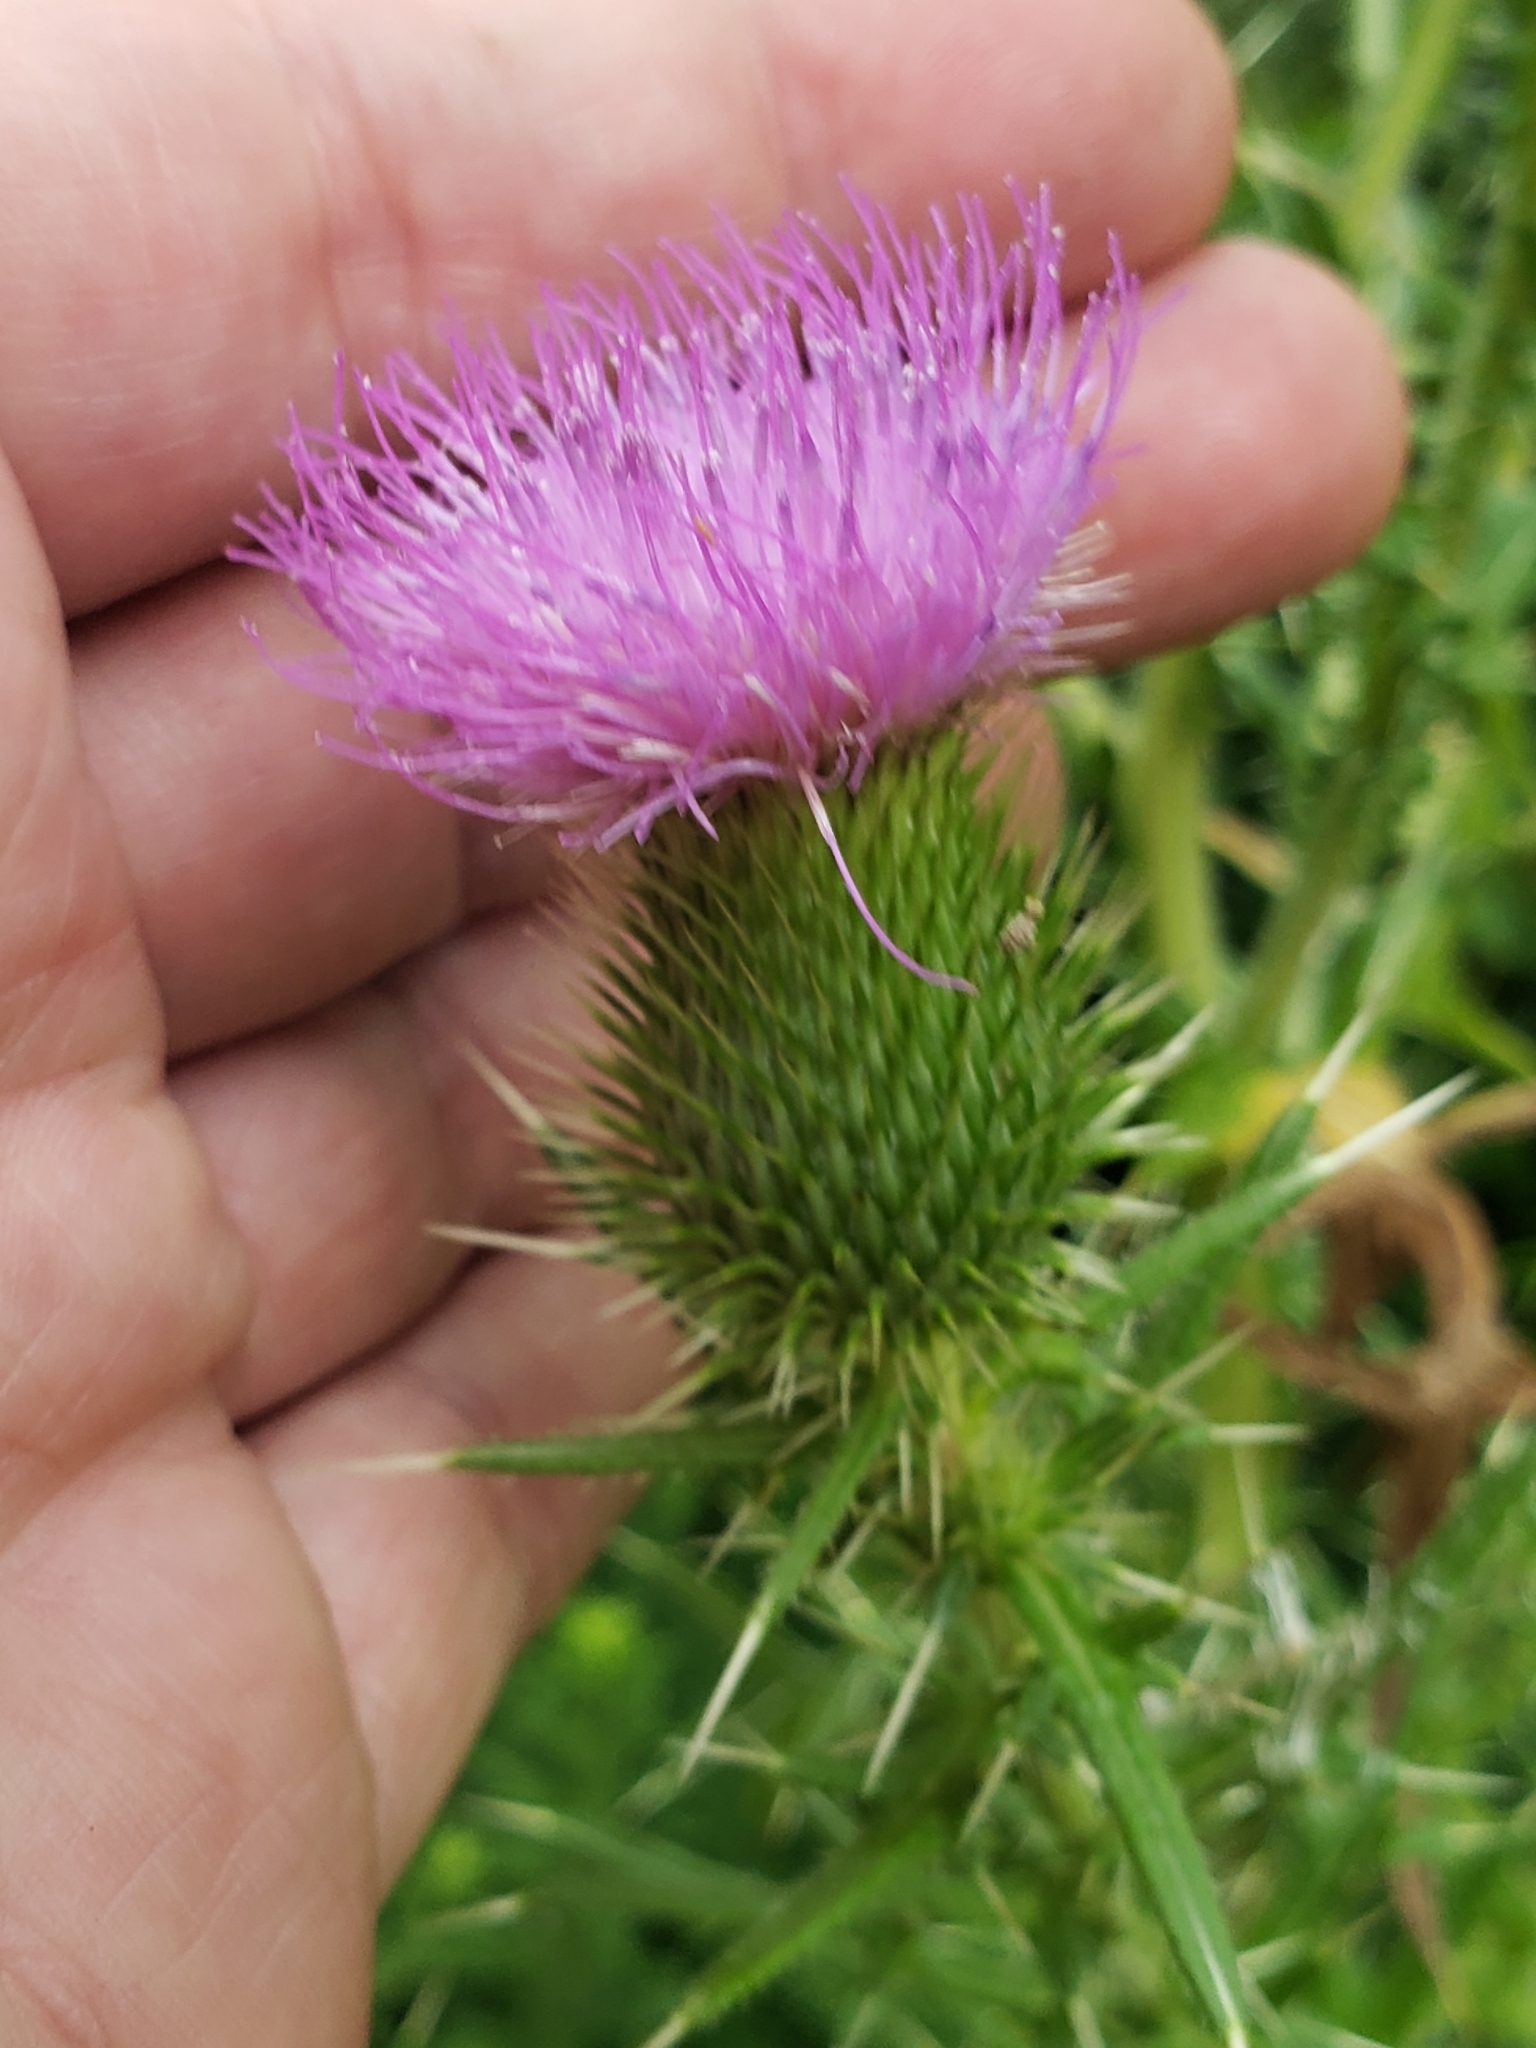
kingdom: Plantae
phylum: Tracheophyta
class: Magnoliopsida
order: Asterales
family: Asteraceae
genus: Cirsium
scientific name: Cirsium vulgare
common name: Bull thistle
